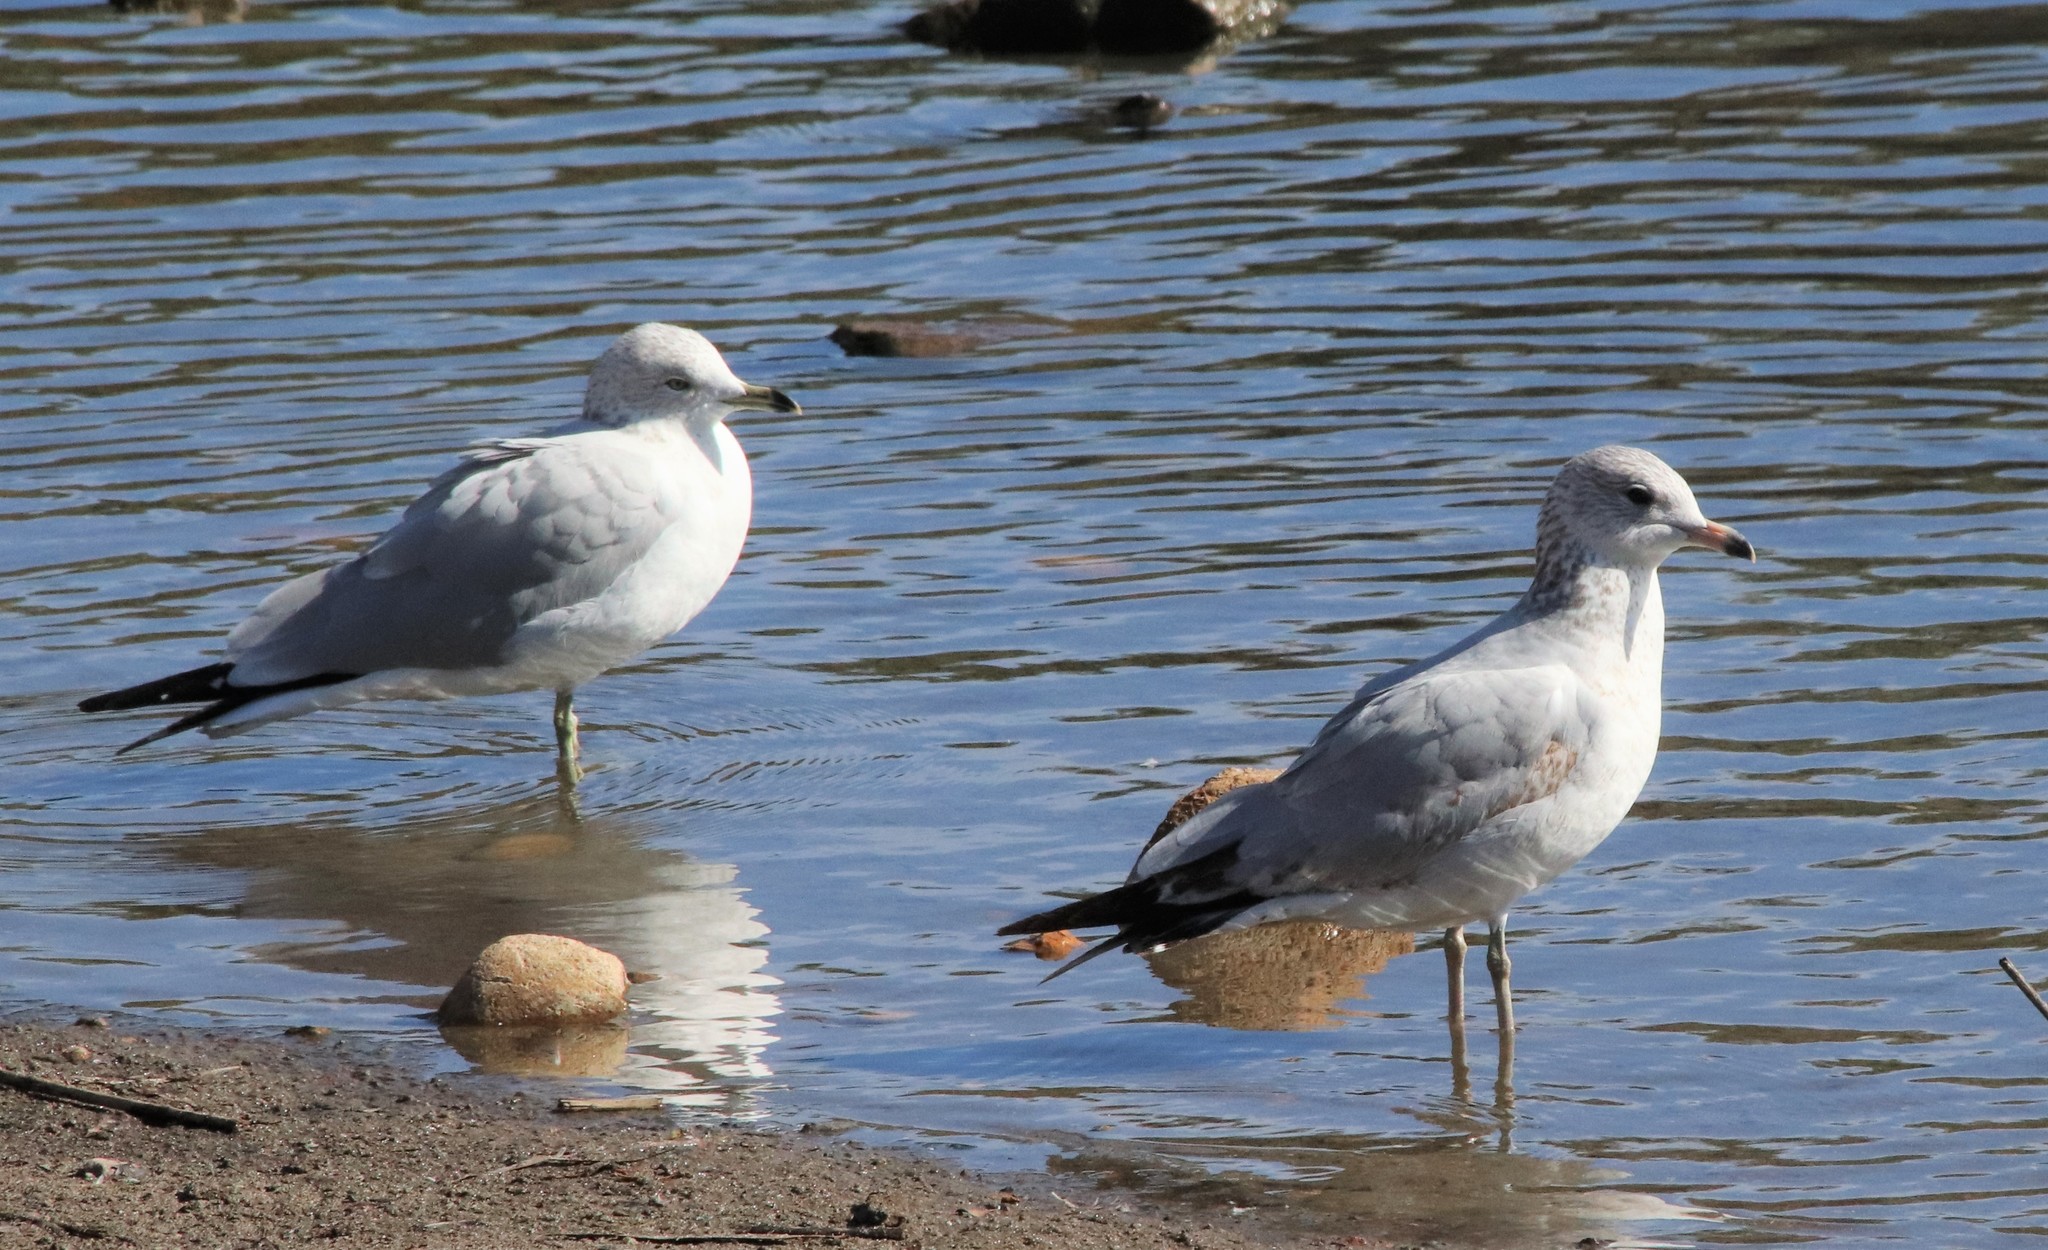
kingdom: Animalia
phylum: Chordata
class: Aves
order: Charadriiformes
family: Laridae
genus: Larus
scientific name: Larus delawarensis
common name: Ring-billed gull
